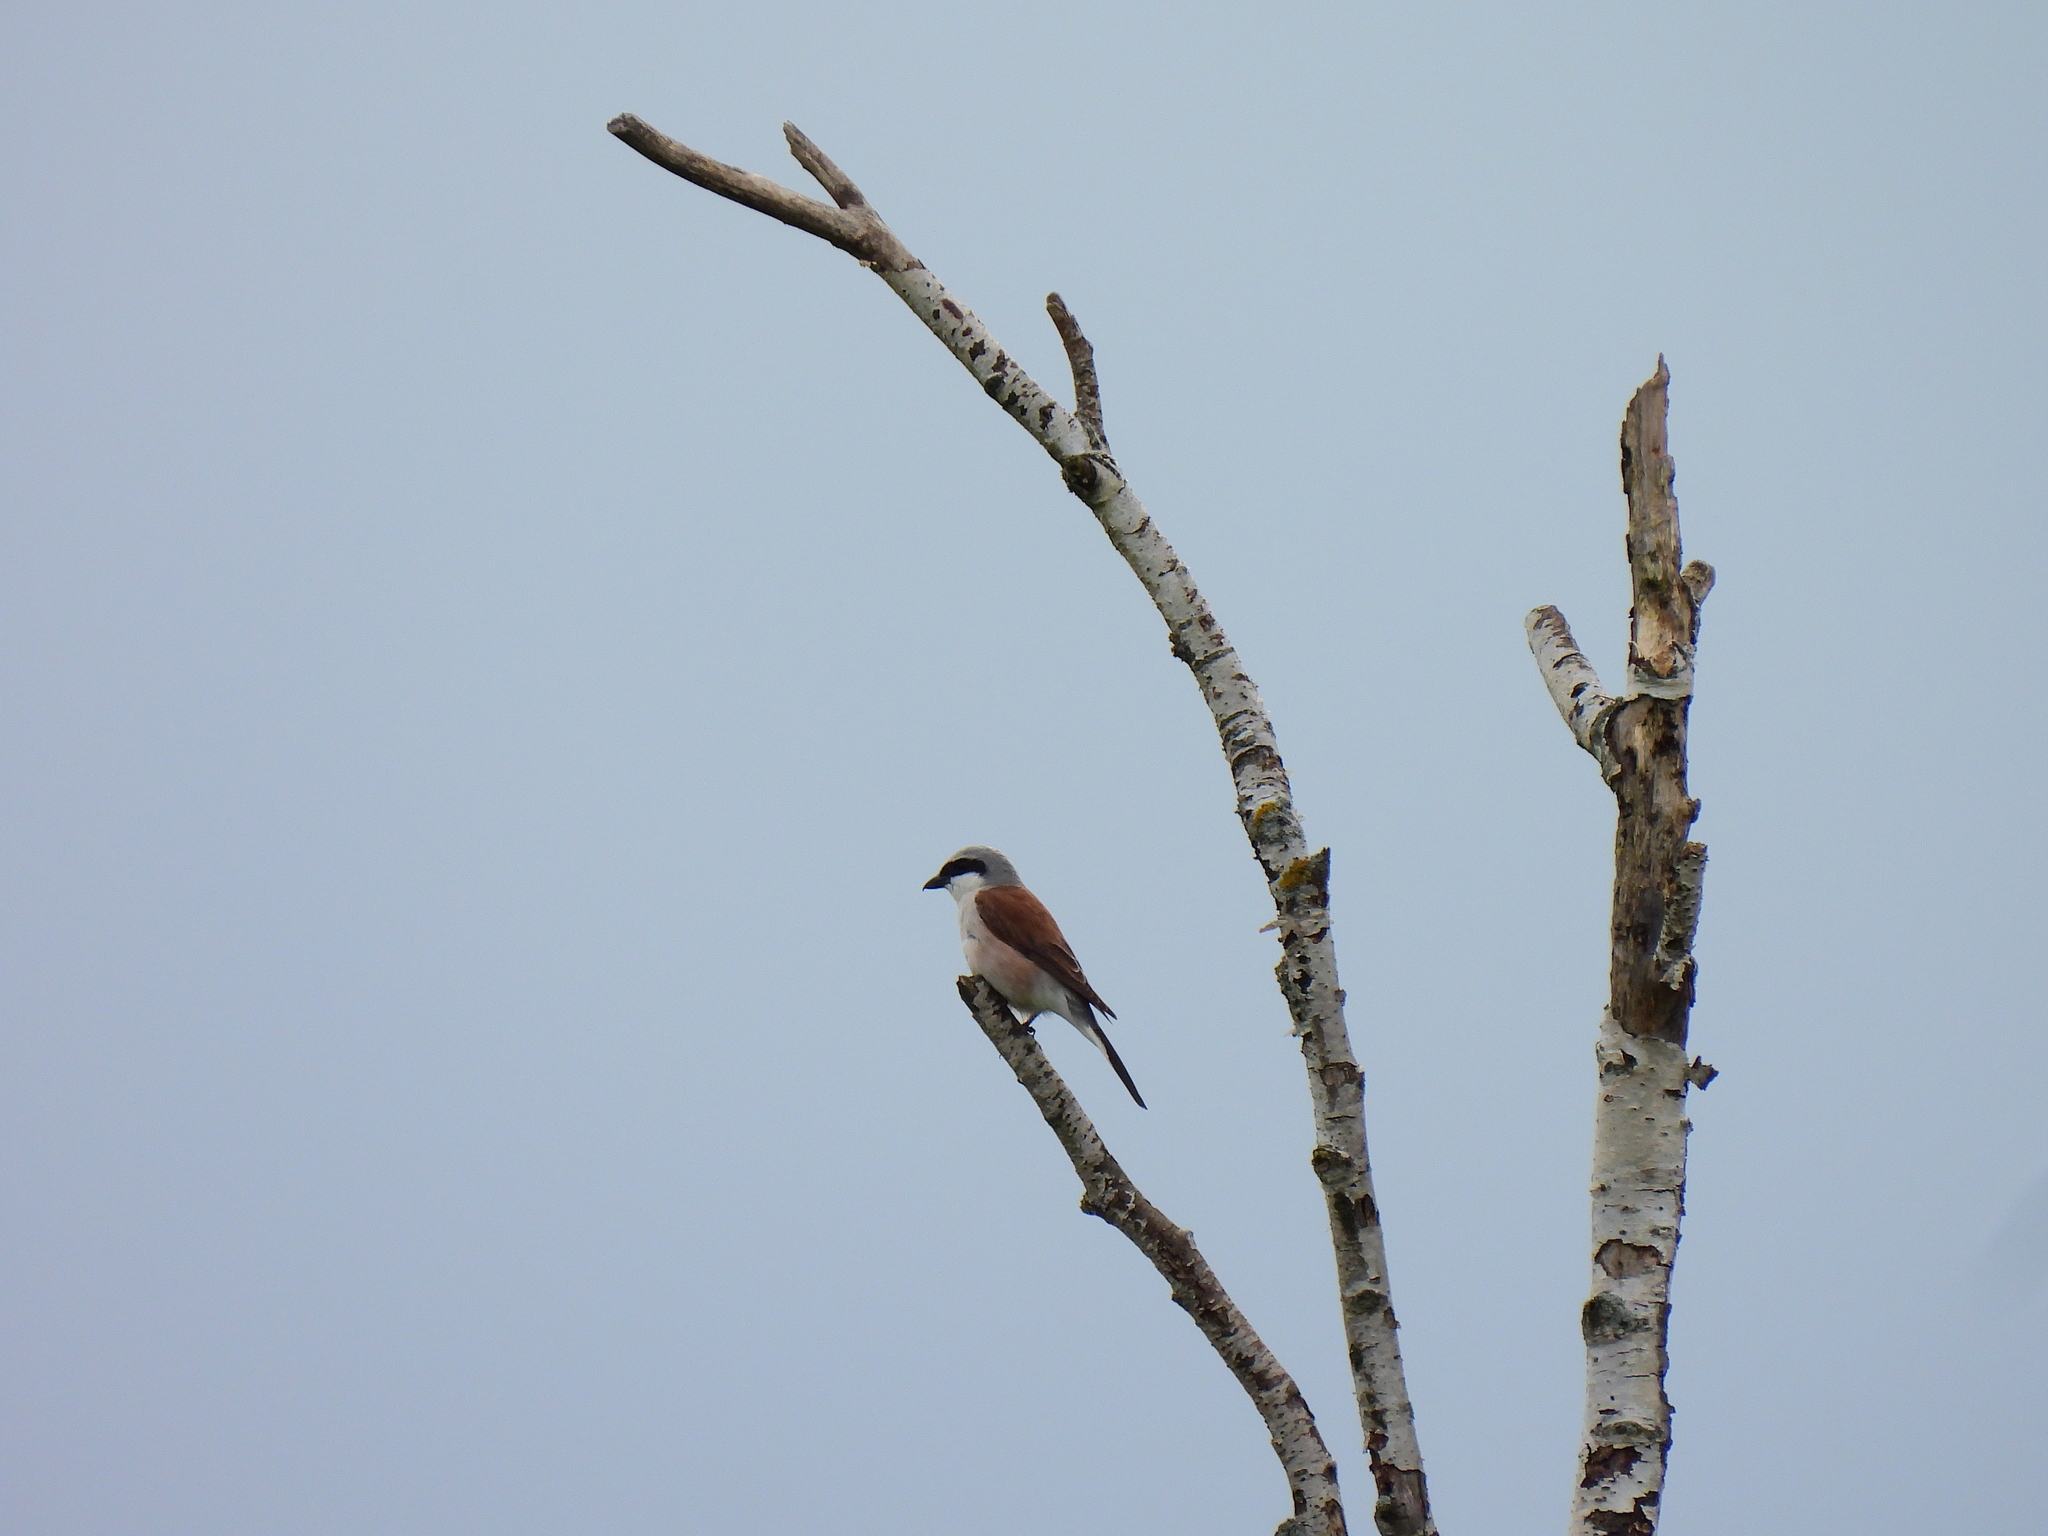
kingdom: Animalia
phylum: Chordata
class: Aves
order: Passeriformes
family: Laniidae
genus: Lanius
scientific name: Lanius collurio
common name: Red-backed shrike
